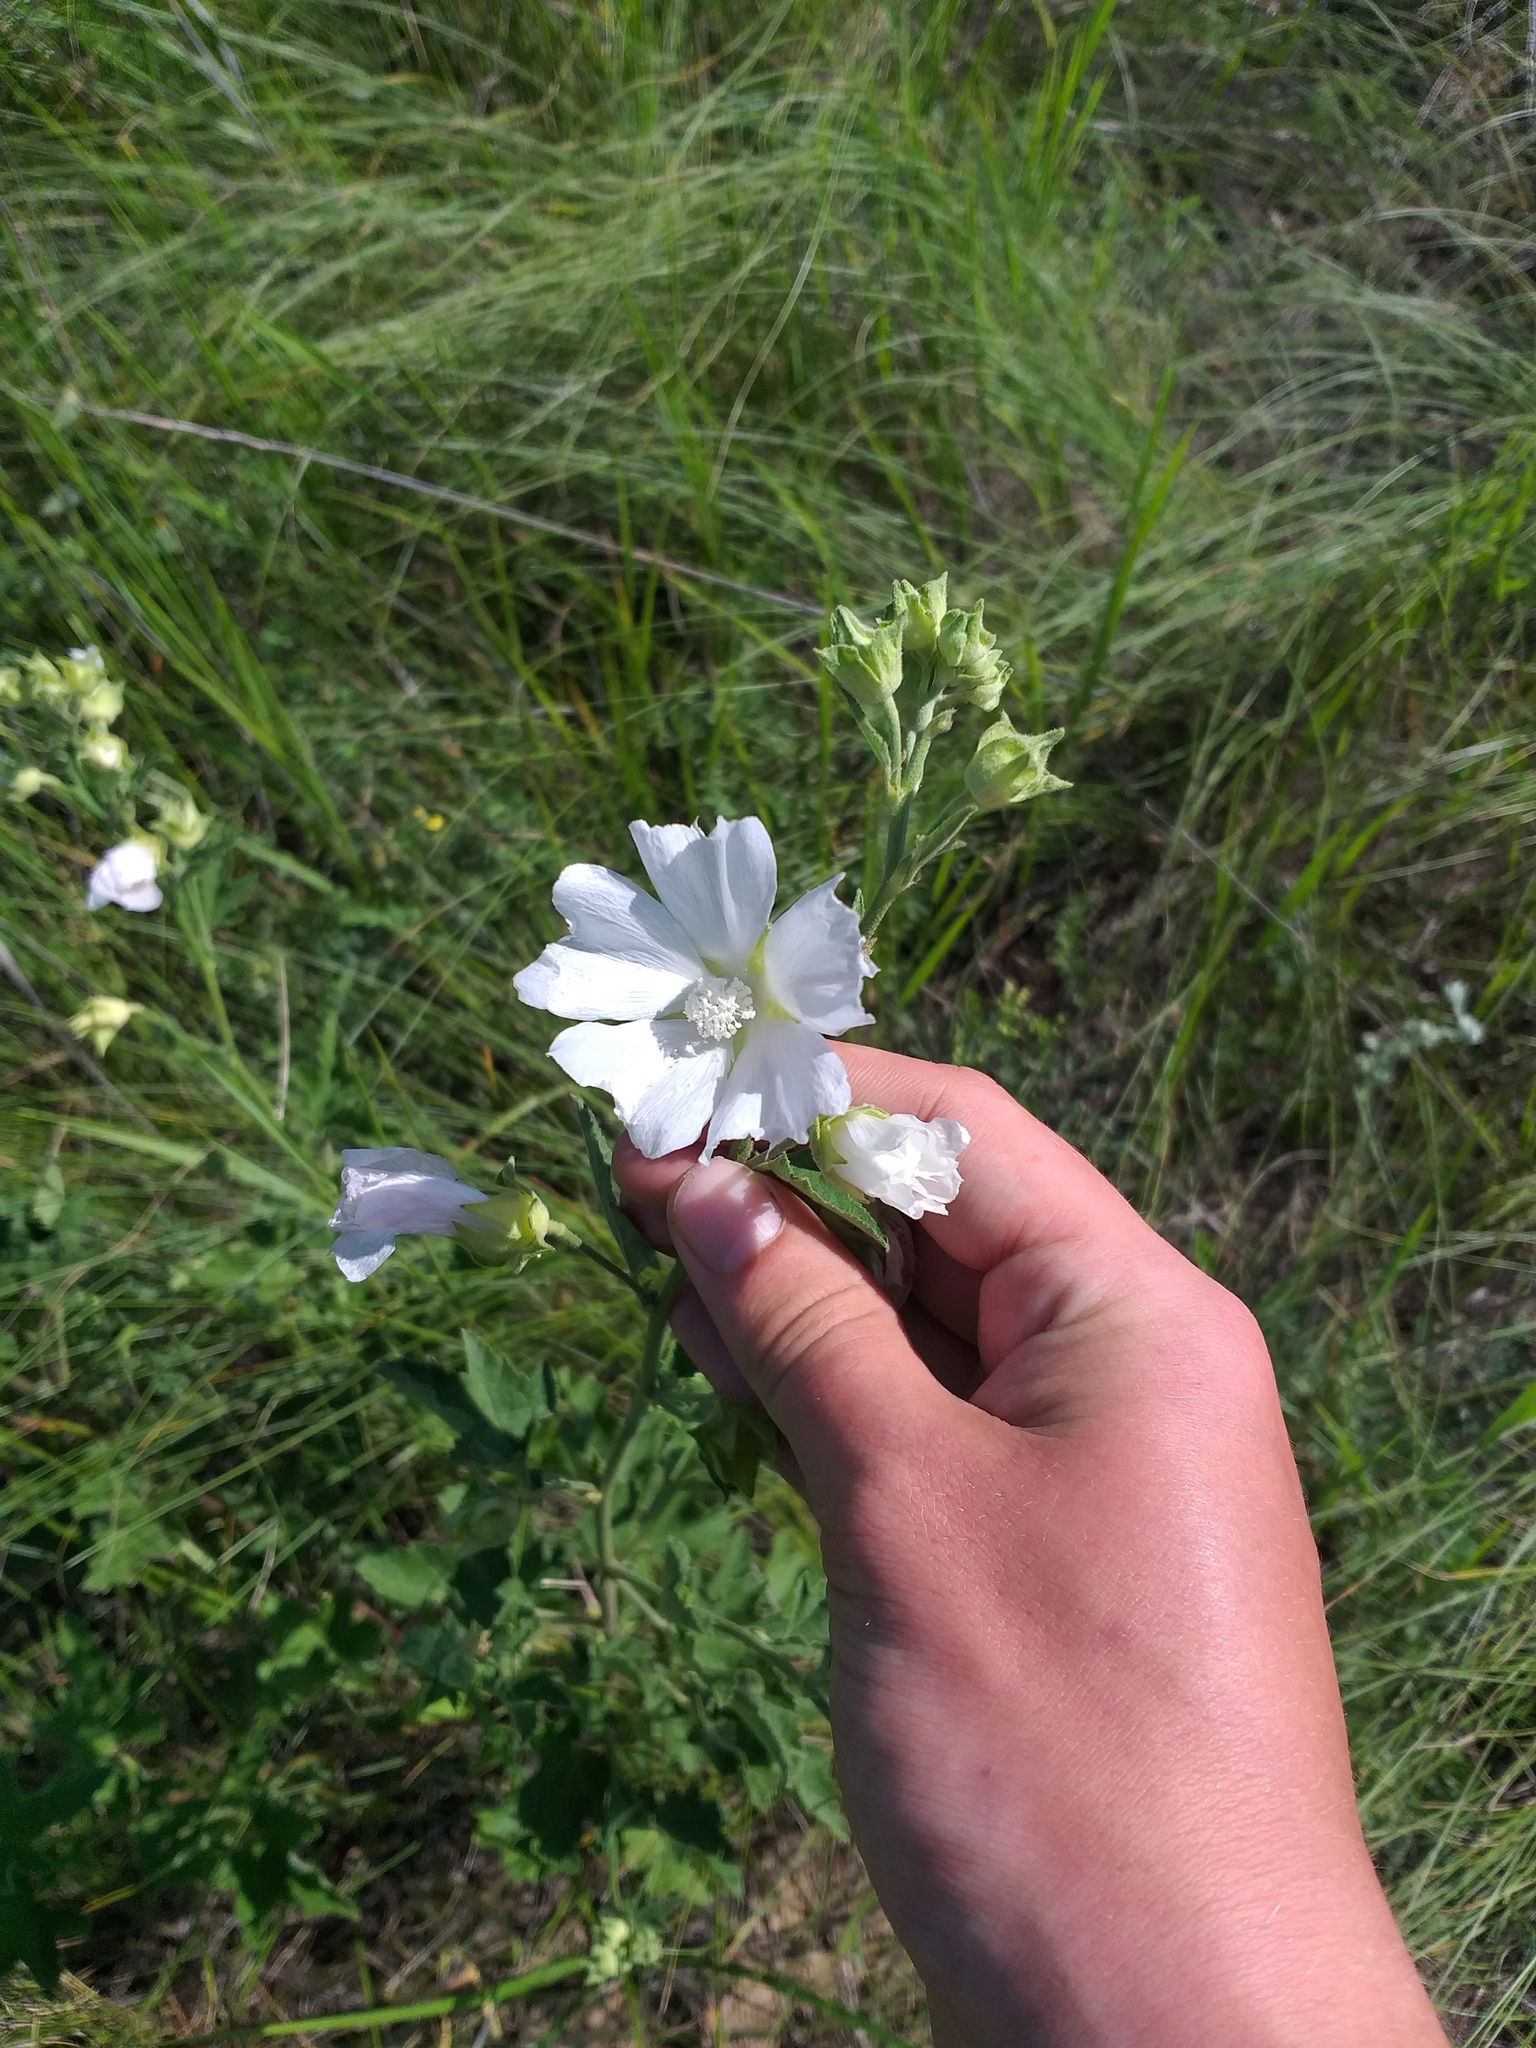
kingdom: Plantae
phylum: Tracheophyta
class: Magnoliopsida
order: Malvales
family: Malvaceae
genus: Malva
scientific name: Malva thuringiaca
